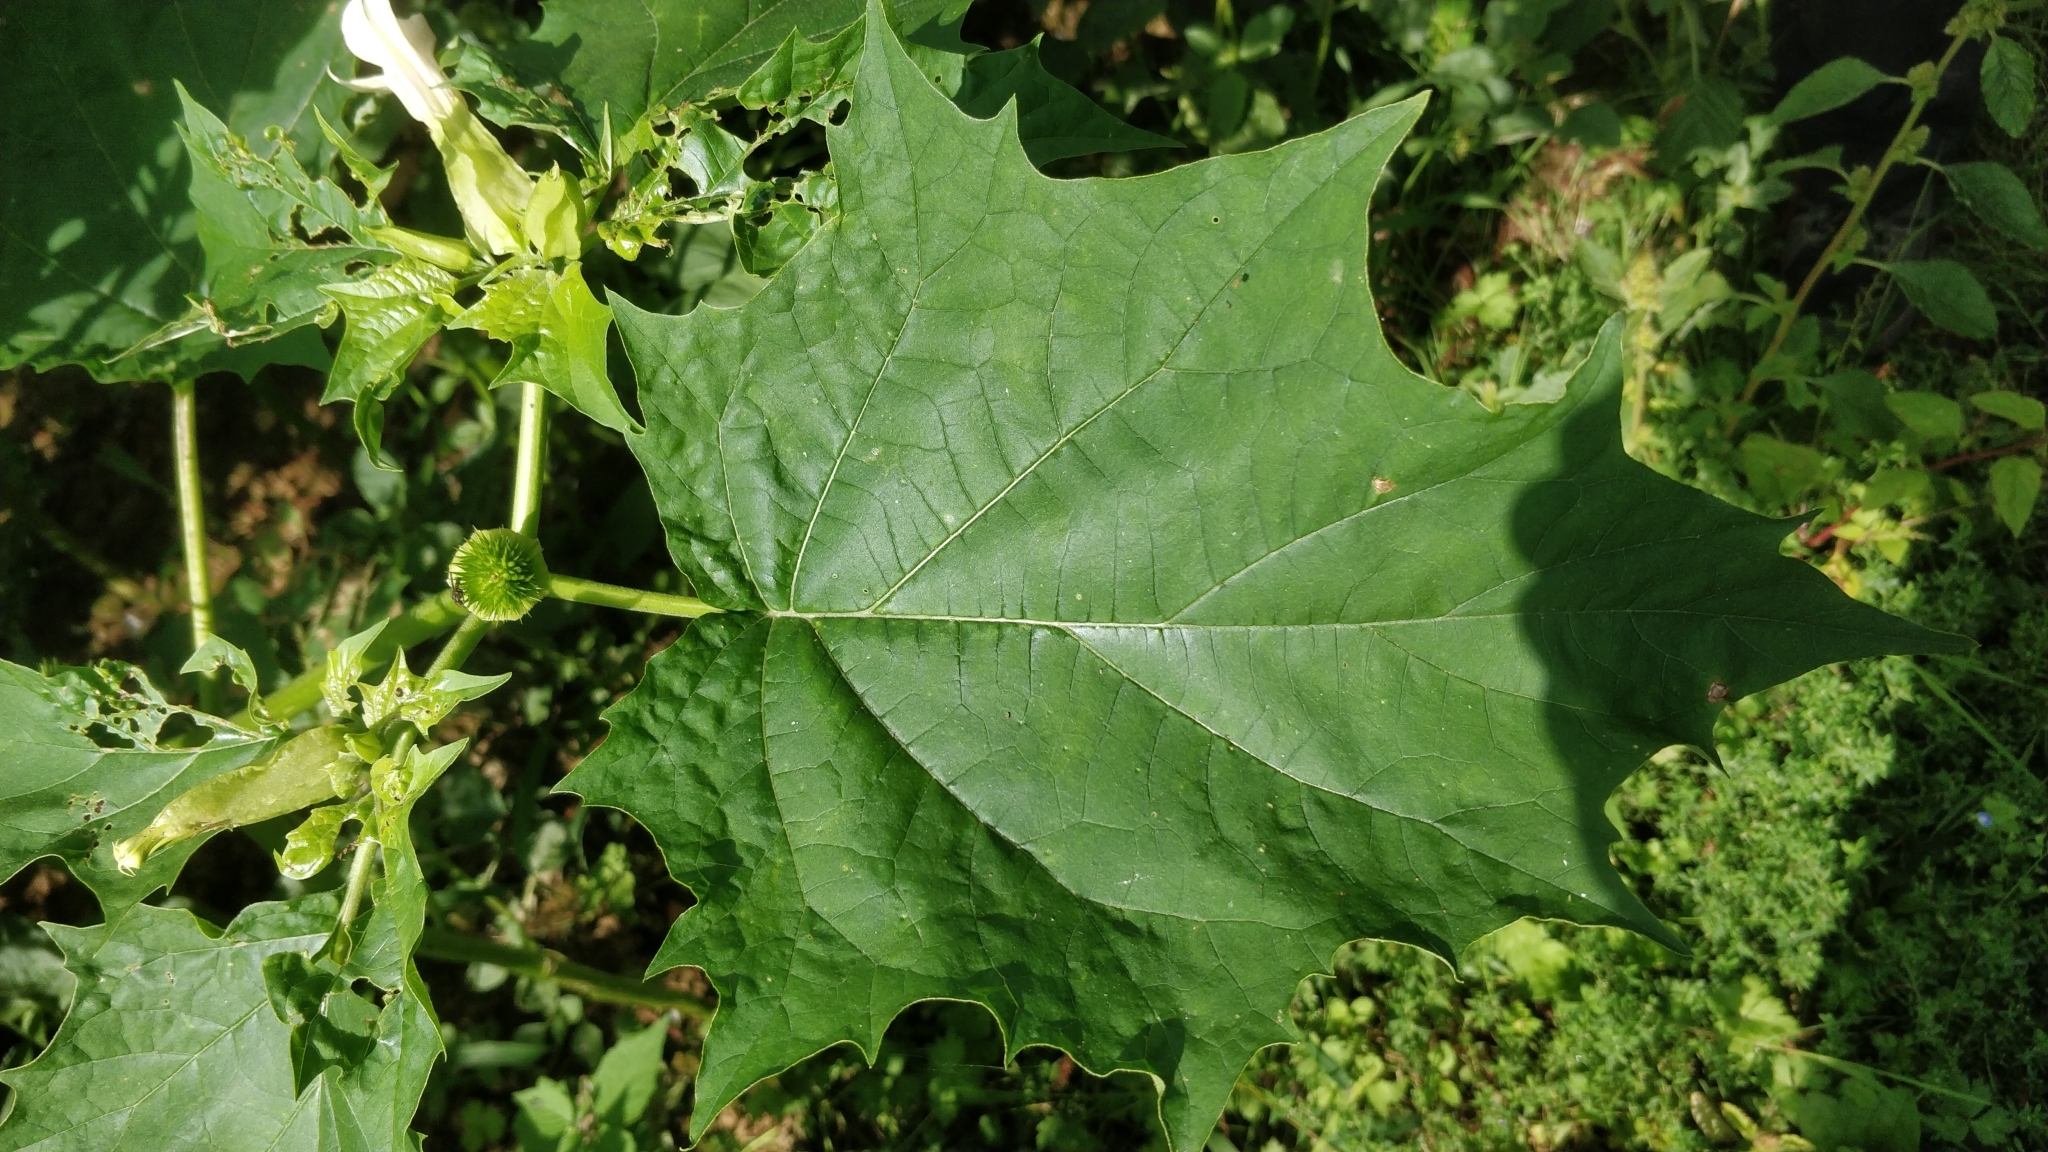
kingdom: Plantae
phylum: Tracheophyta
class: Magnoliopsida
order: Solanales
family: Solanaceae
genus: Datura
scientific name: Datura stramonium
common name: Thorn-apple
